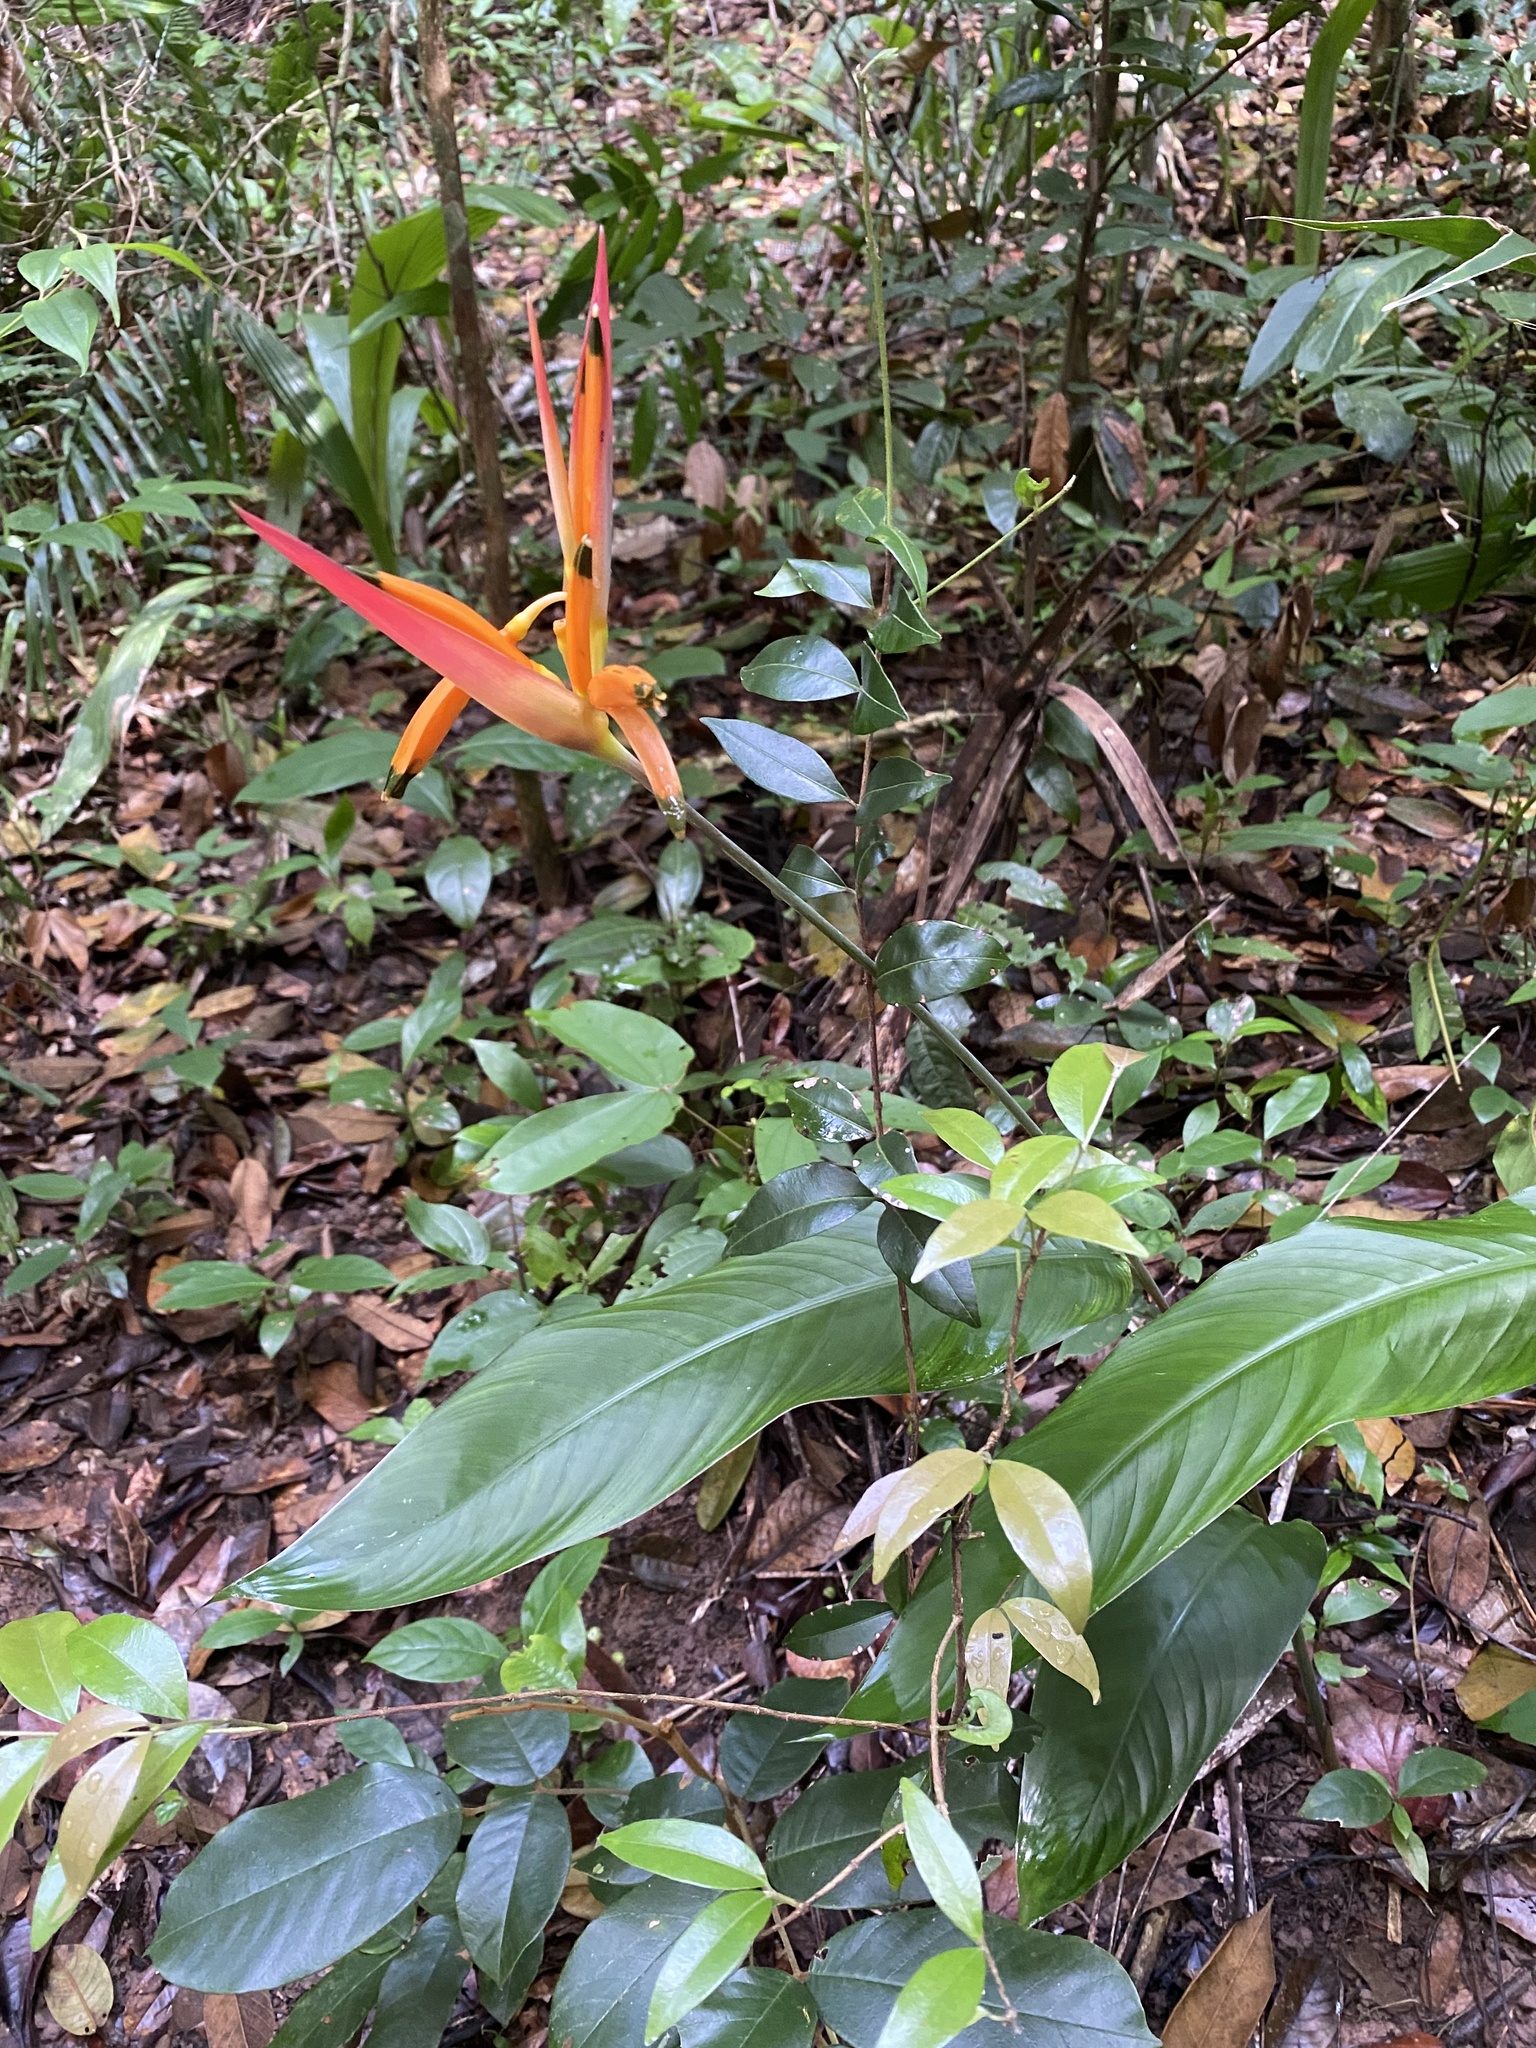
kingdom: Plantae
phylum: Tracheophyta
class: Liliopsida
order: Zingiberales
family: Heliconiaceae
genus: Heliconia
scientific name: Heliconia psittacorum
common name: Parrot's-flower
